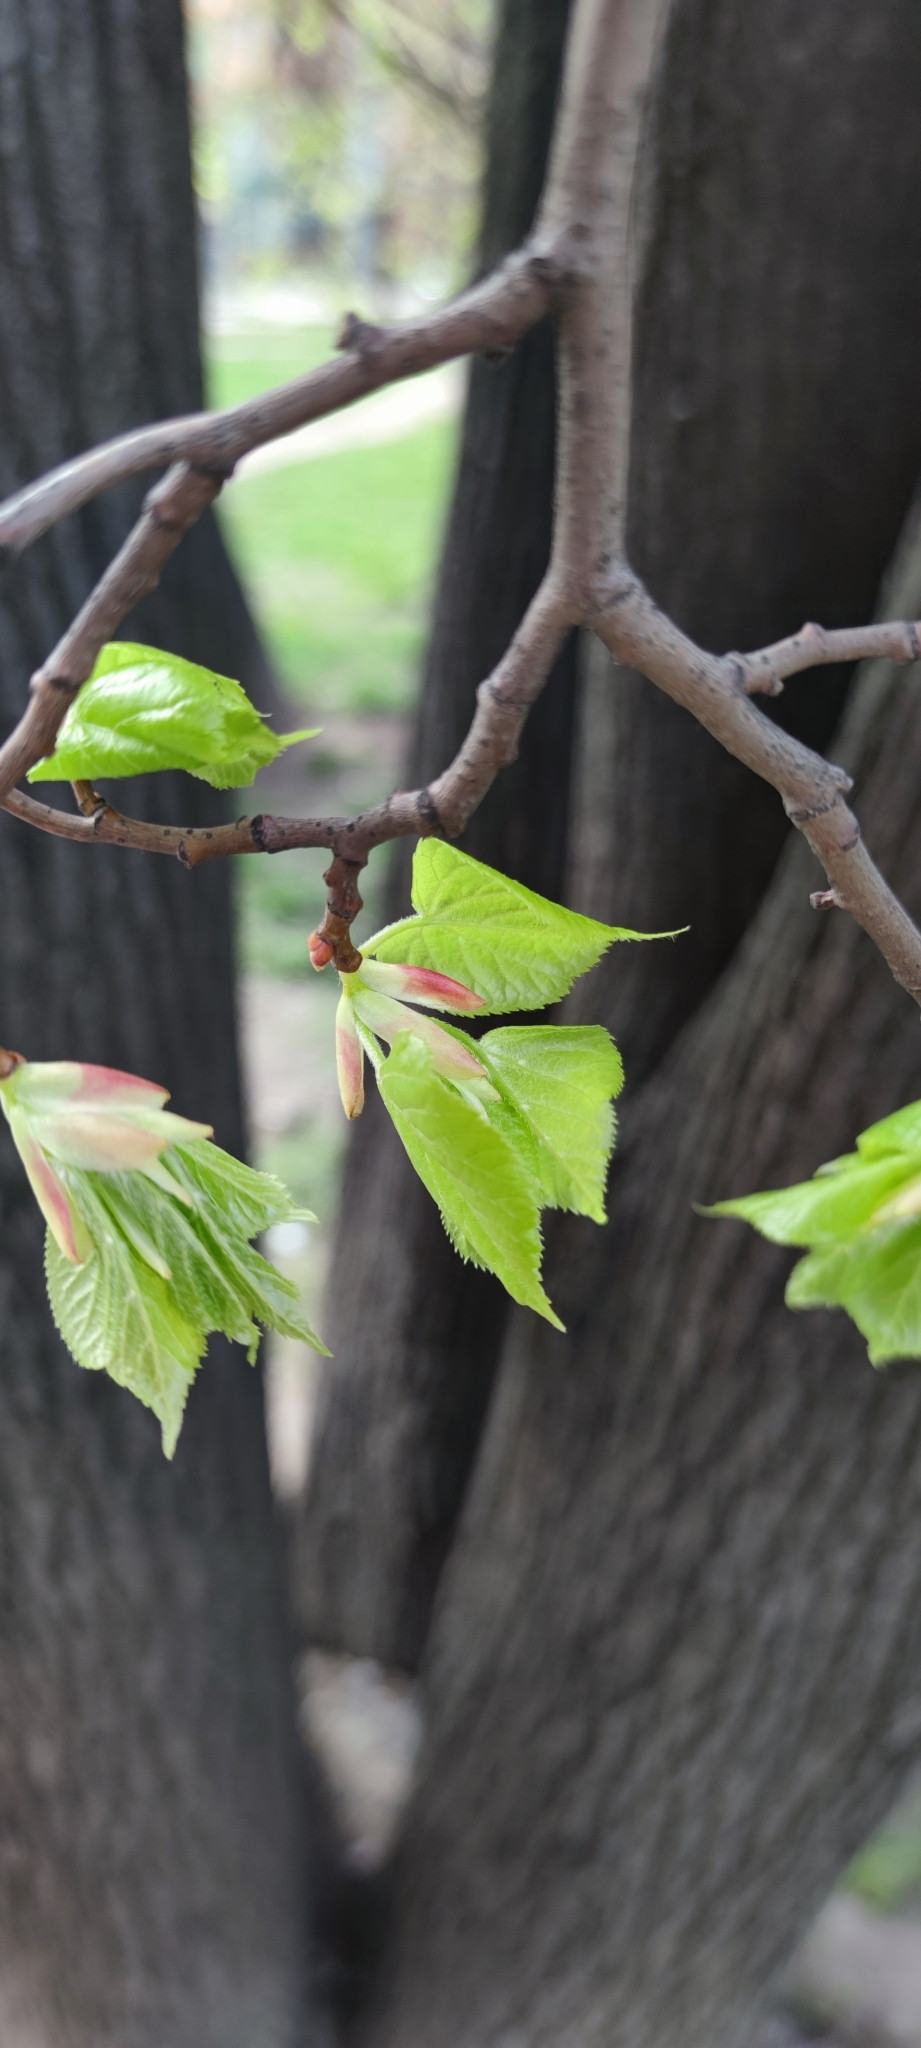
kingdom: Plantae
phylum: Tracheophyta
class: Magnoliopsida
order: Malvales
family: Malvaceae
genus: Tilia
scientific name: Tilia cordata
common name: Small-leaved lime
